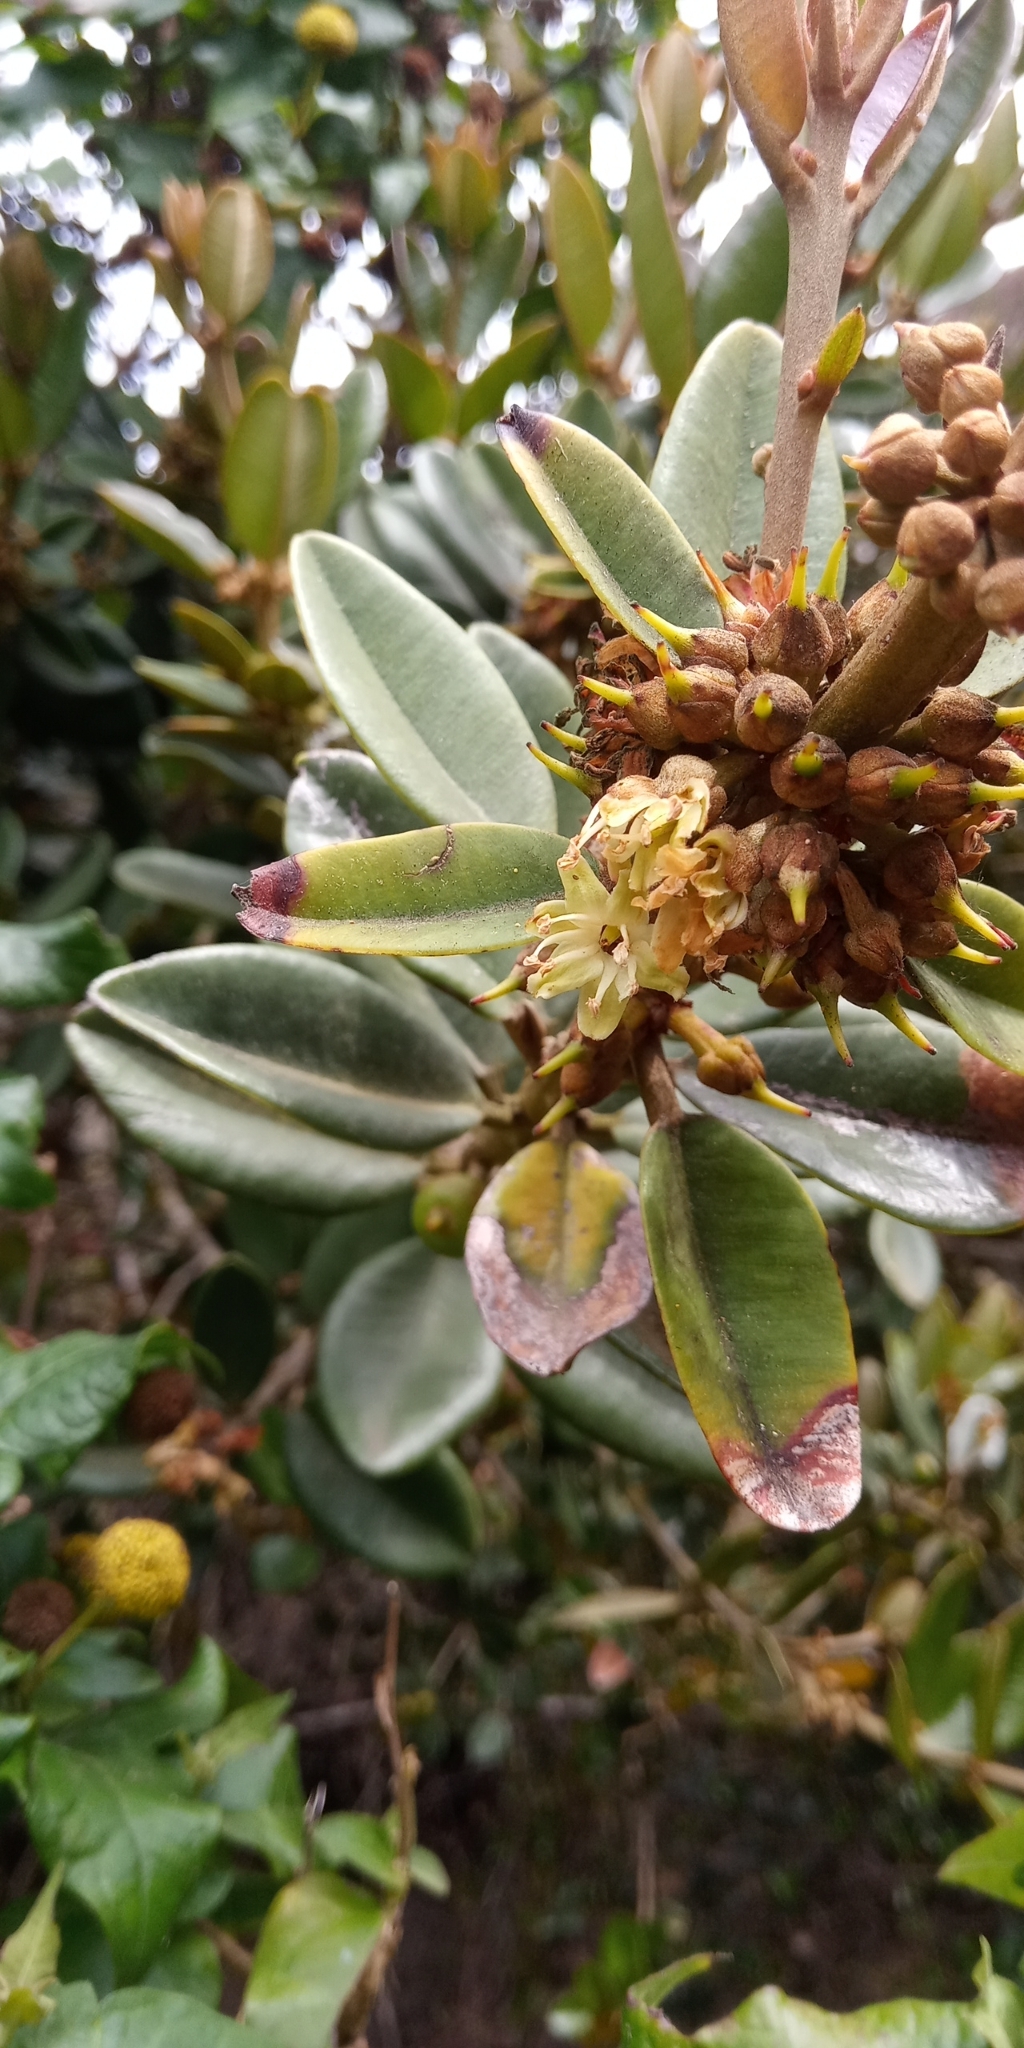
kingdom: Plantae
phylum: Tracheophyta
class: Magnoliopsida
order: Ericales
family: Sapotaceae
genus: Pouteria
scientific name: Pouteria valparadisaea
